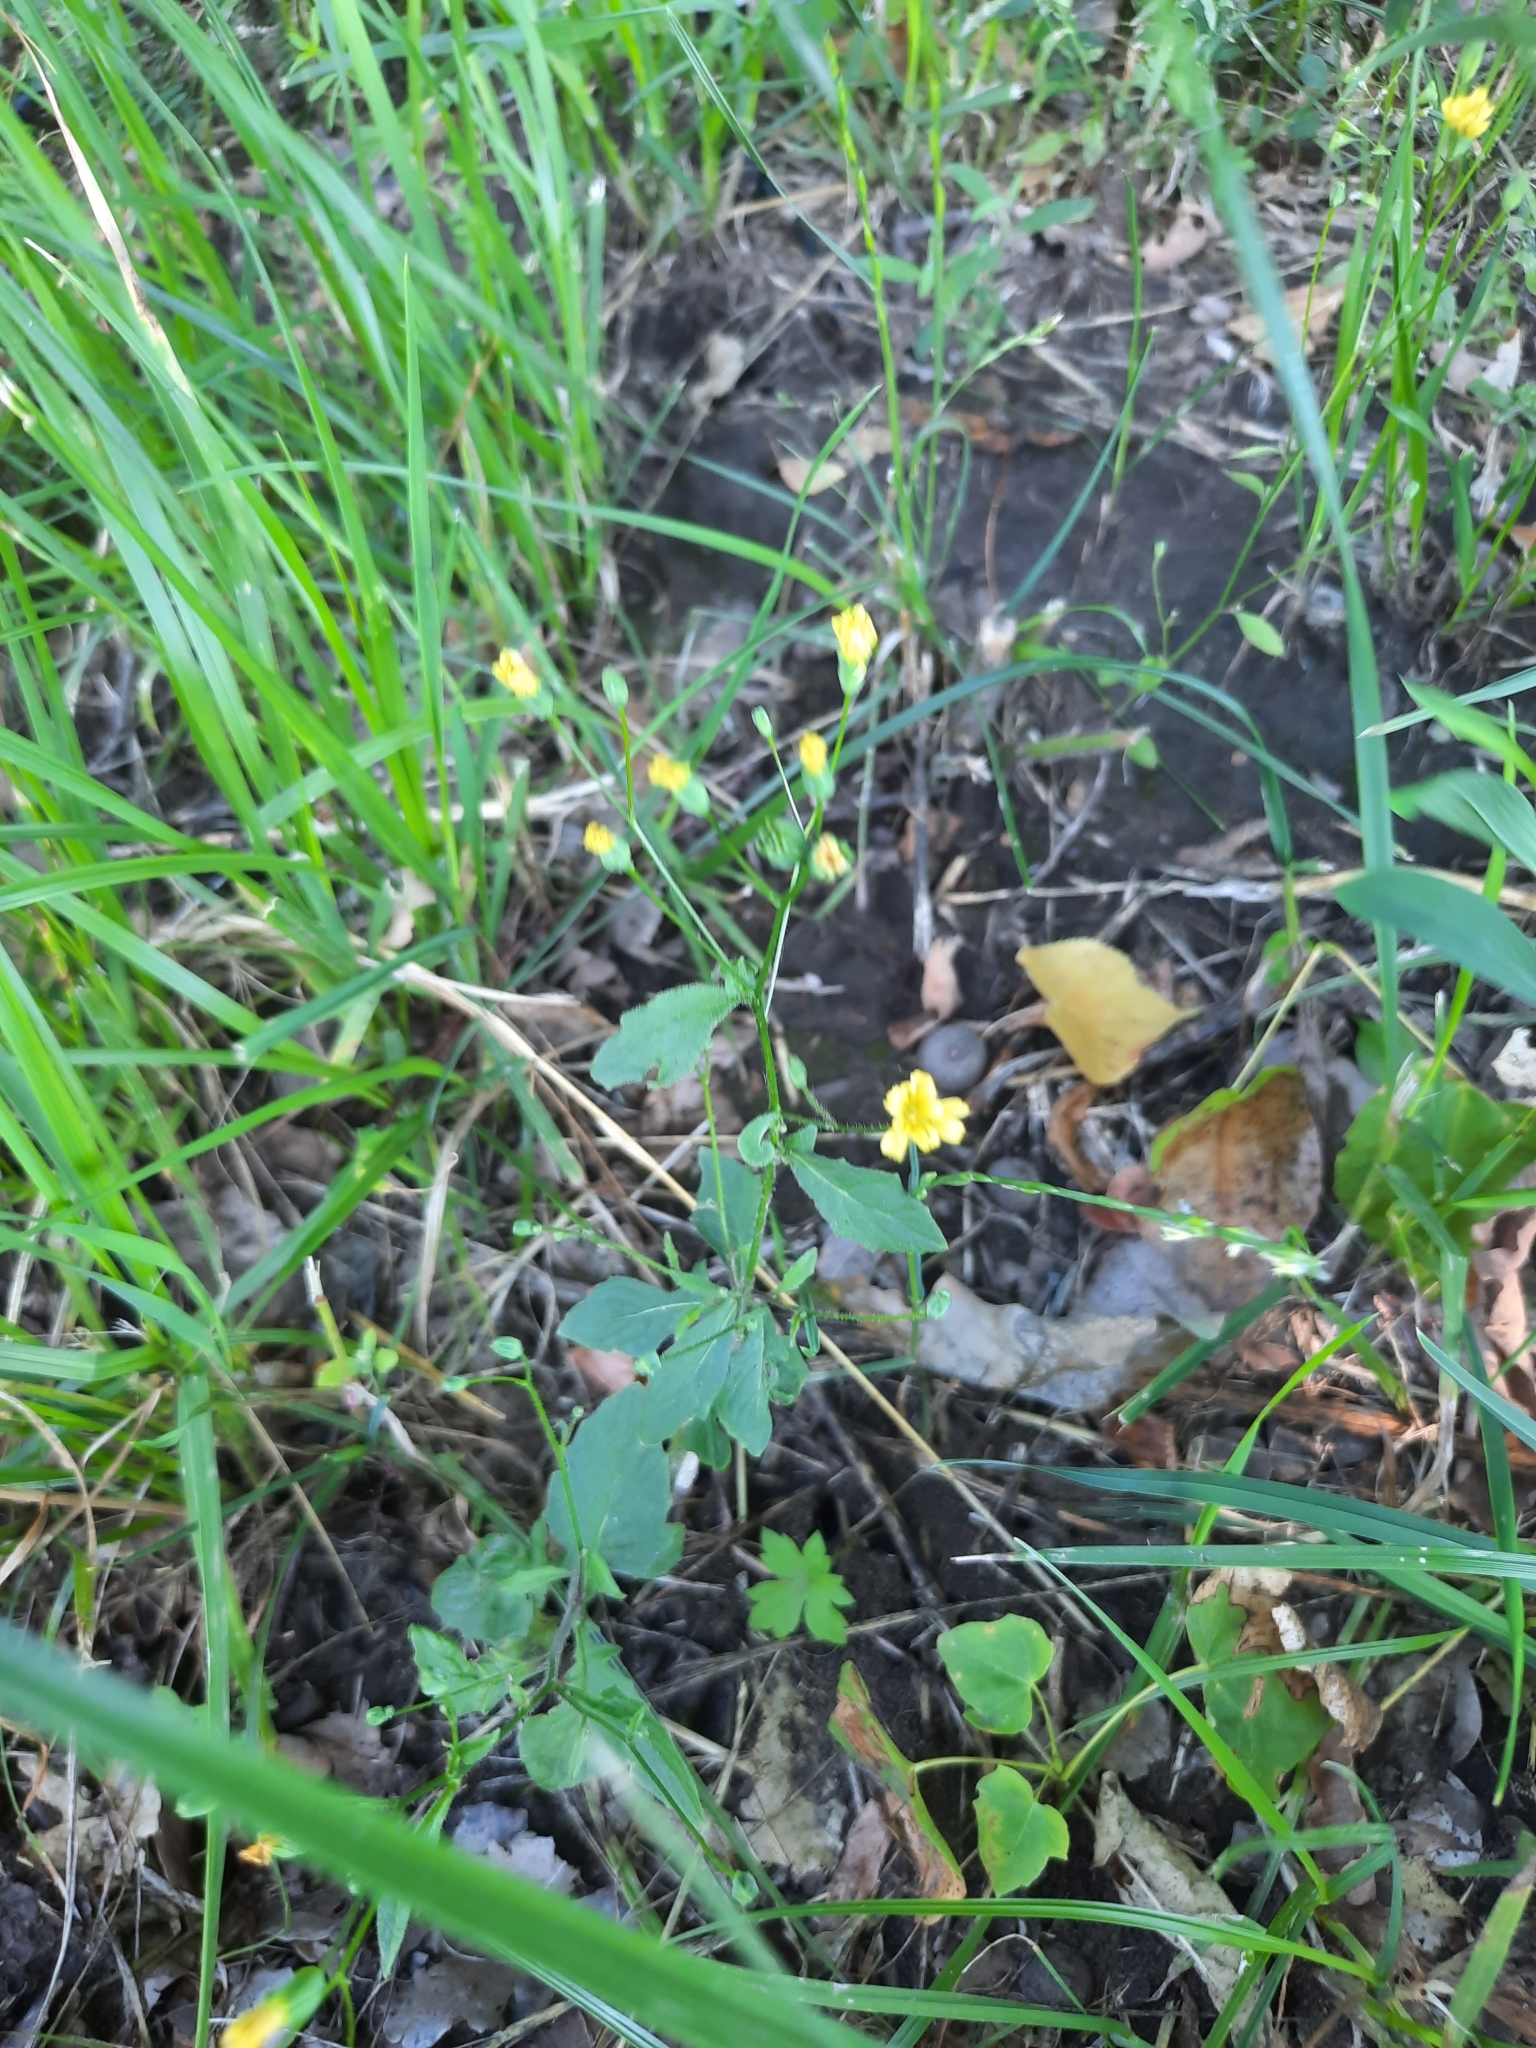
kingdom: Plantae
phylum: Tracheophyta
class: Magnoliopsida
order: Asterales
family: Asteraceae
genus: Lapsana
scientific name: Lapsana communis
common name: Nipplewort
